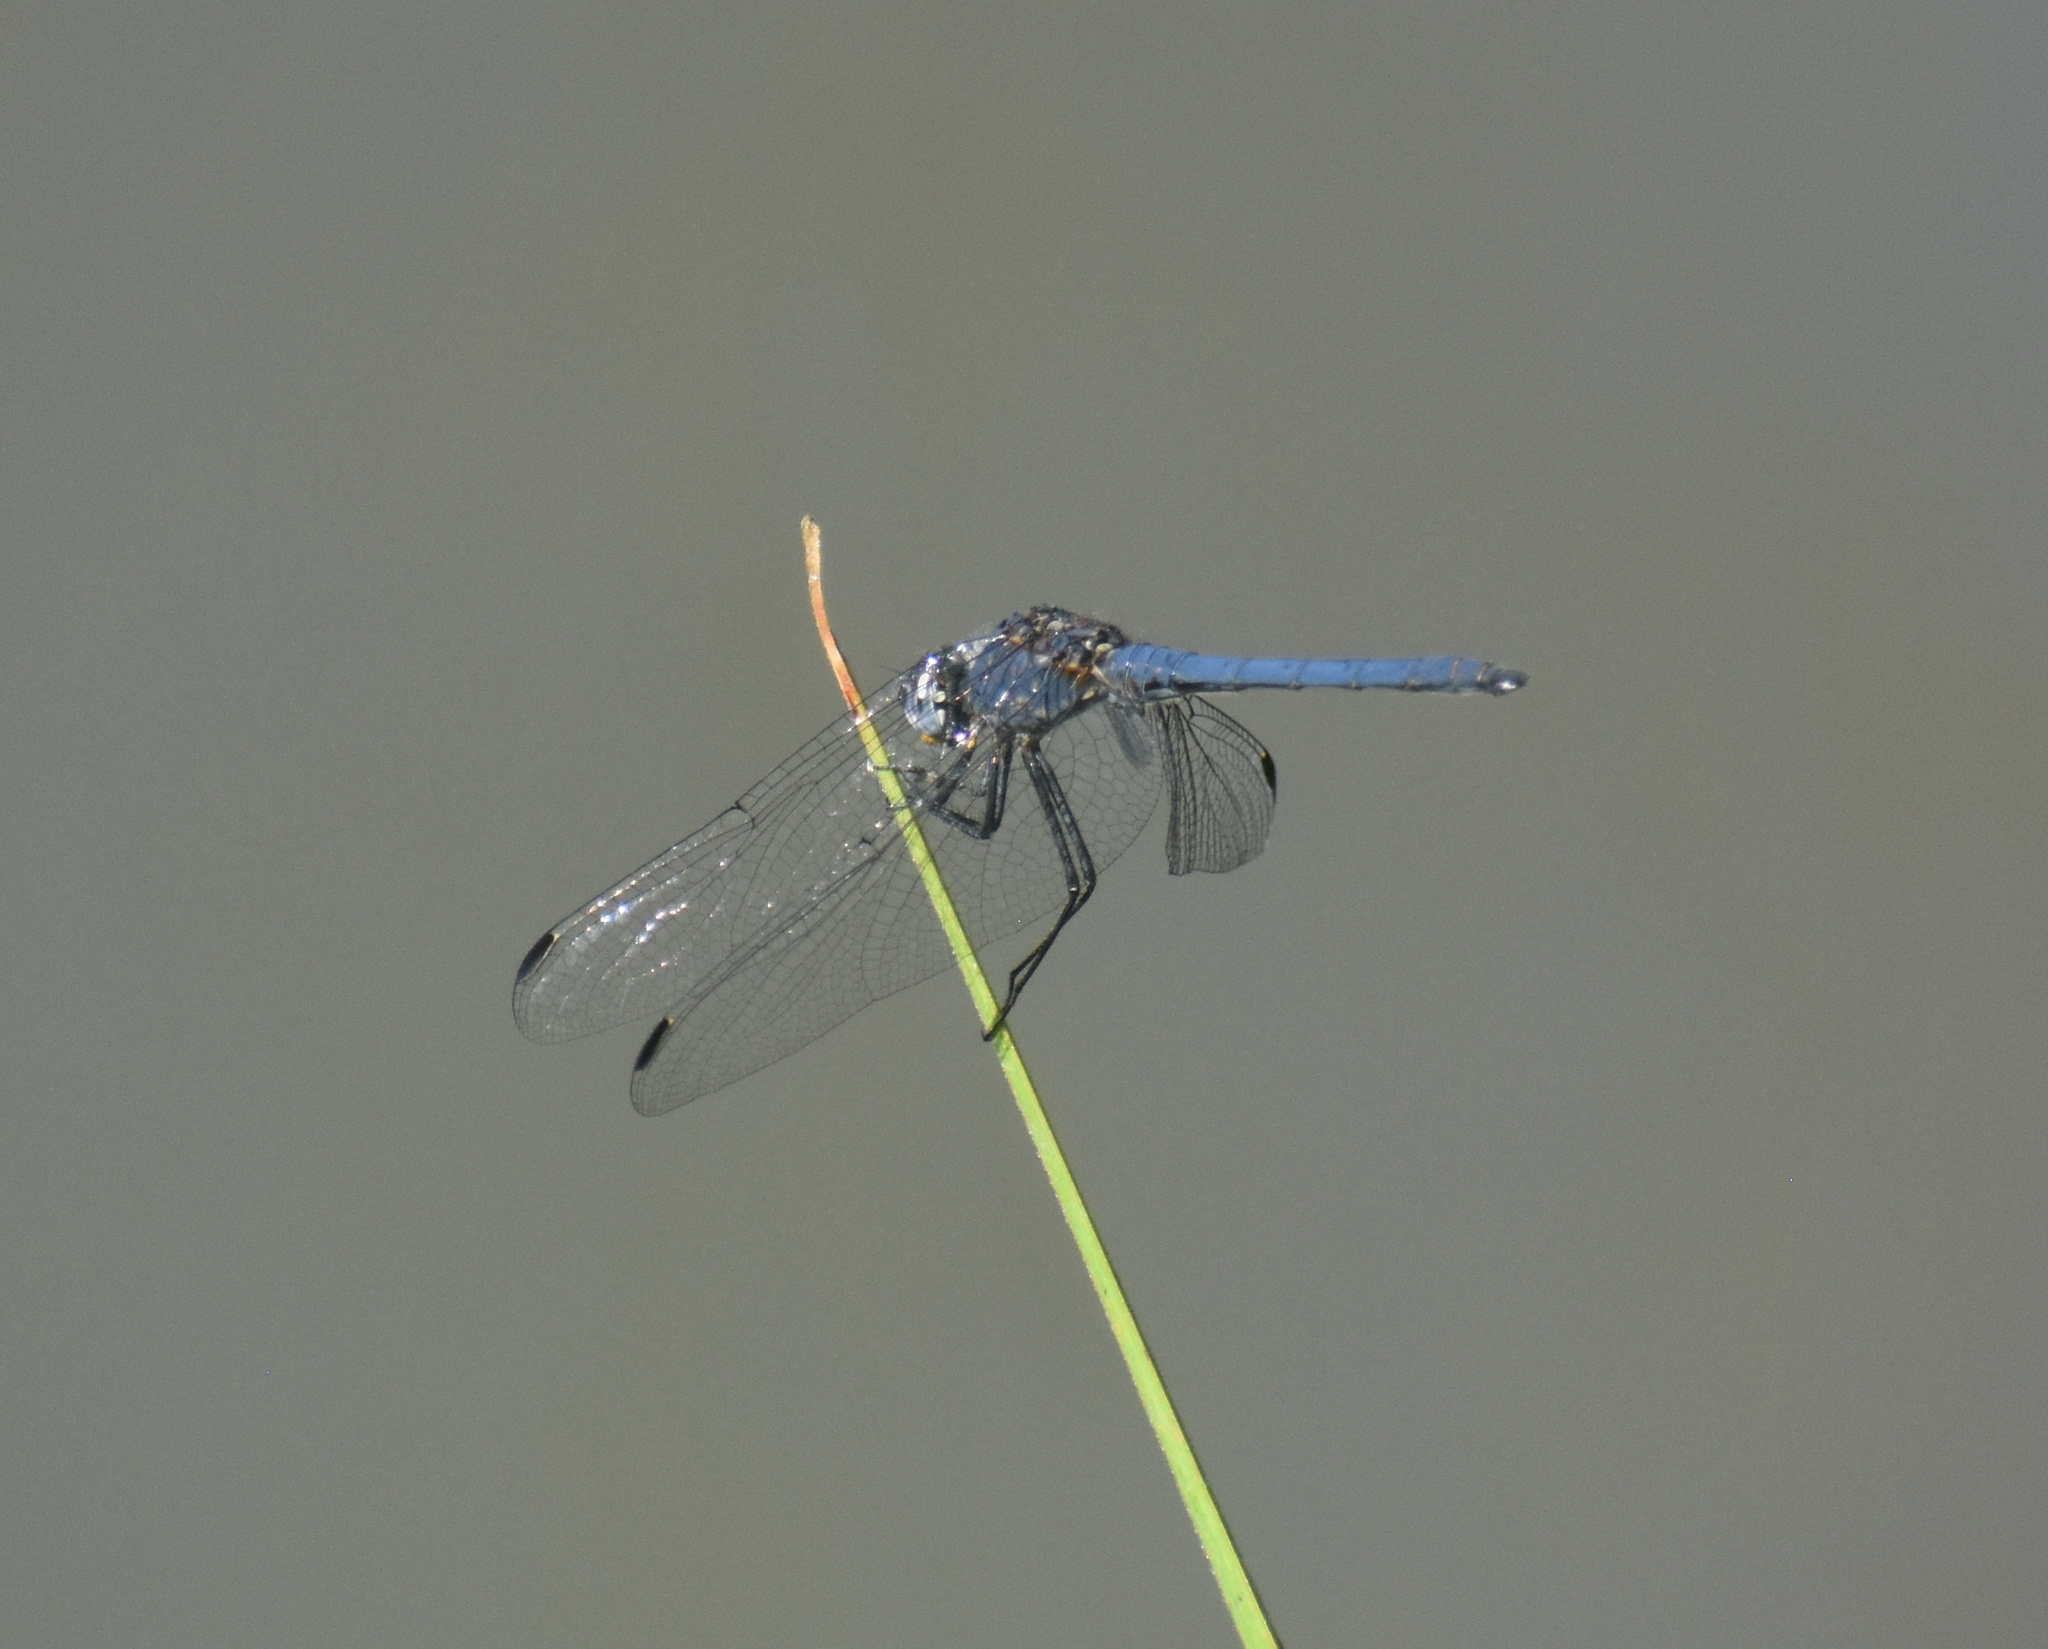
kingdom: Animalia
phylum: Arthropoda
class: Insecta
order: Odonata
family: Libellulidae
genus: Trithemis
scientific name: Trithemis furva
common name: Dark dropwing
